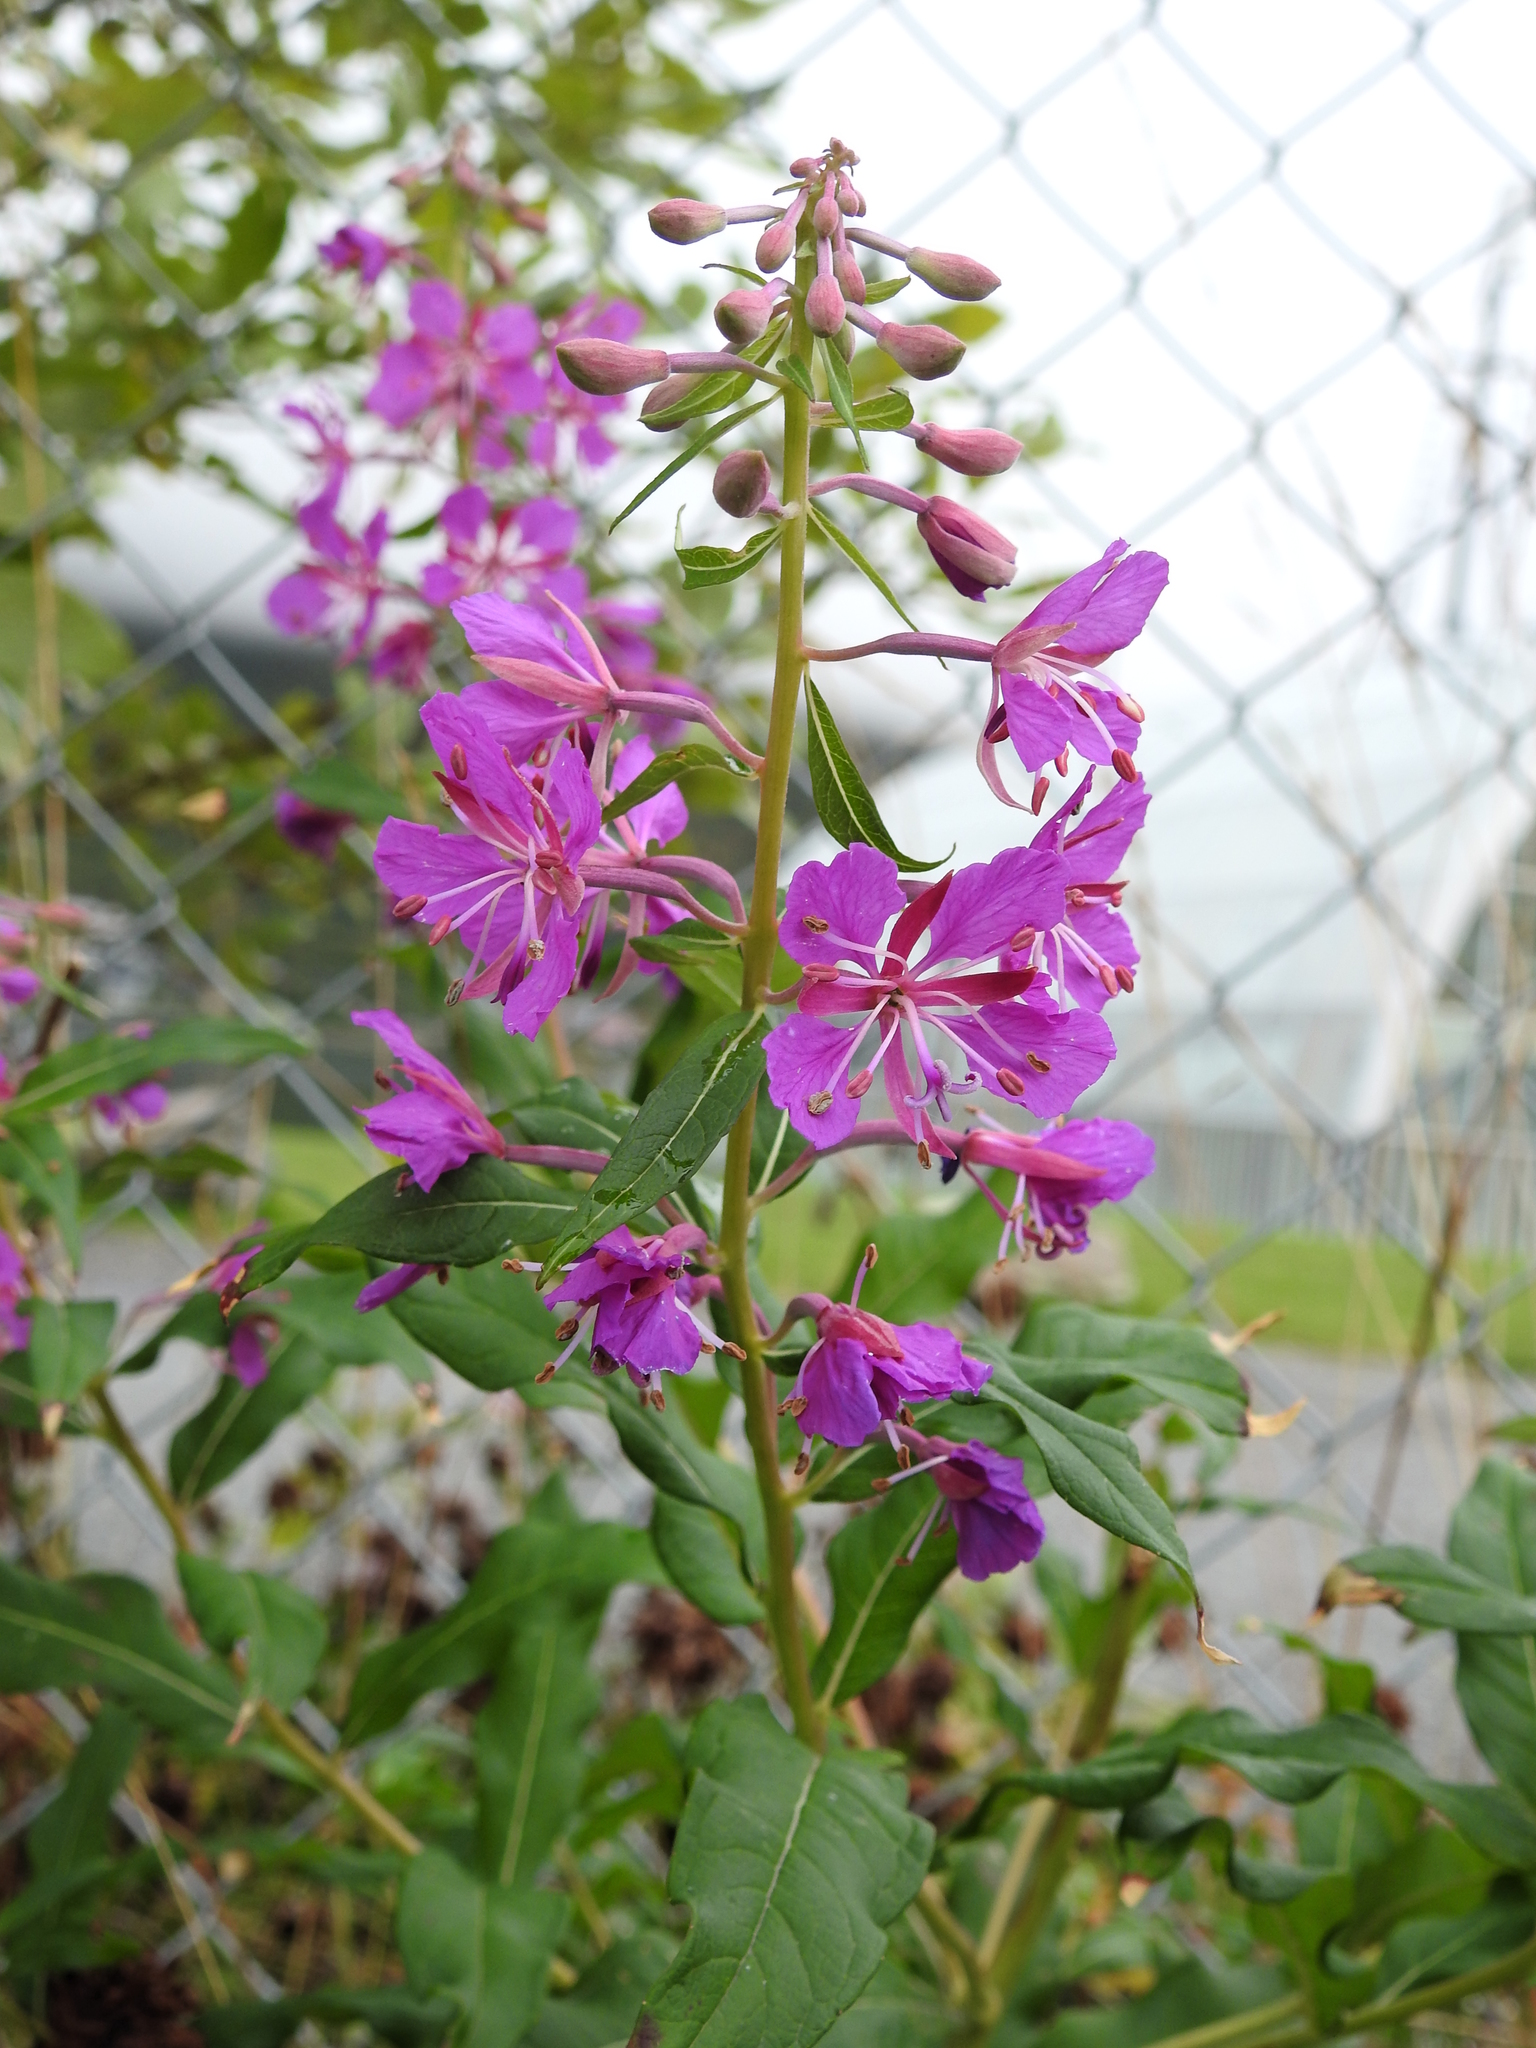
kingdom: Plantae
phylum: Tracheophyta
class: Magnoliopsida
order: Myrtales
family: Onagraceae
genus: Chamaenerion
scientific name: Chamaenerion angustifolium
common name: Fireweed
